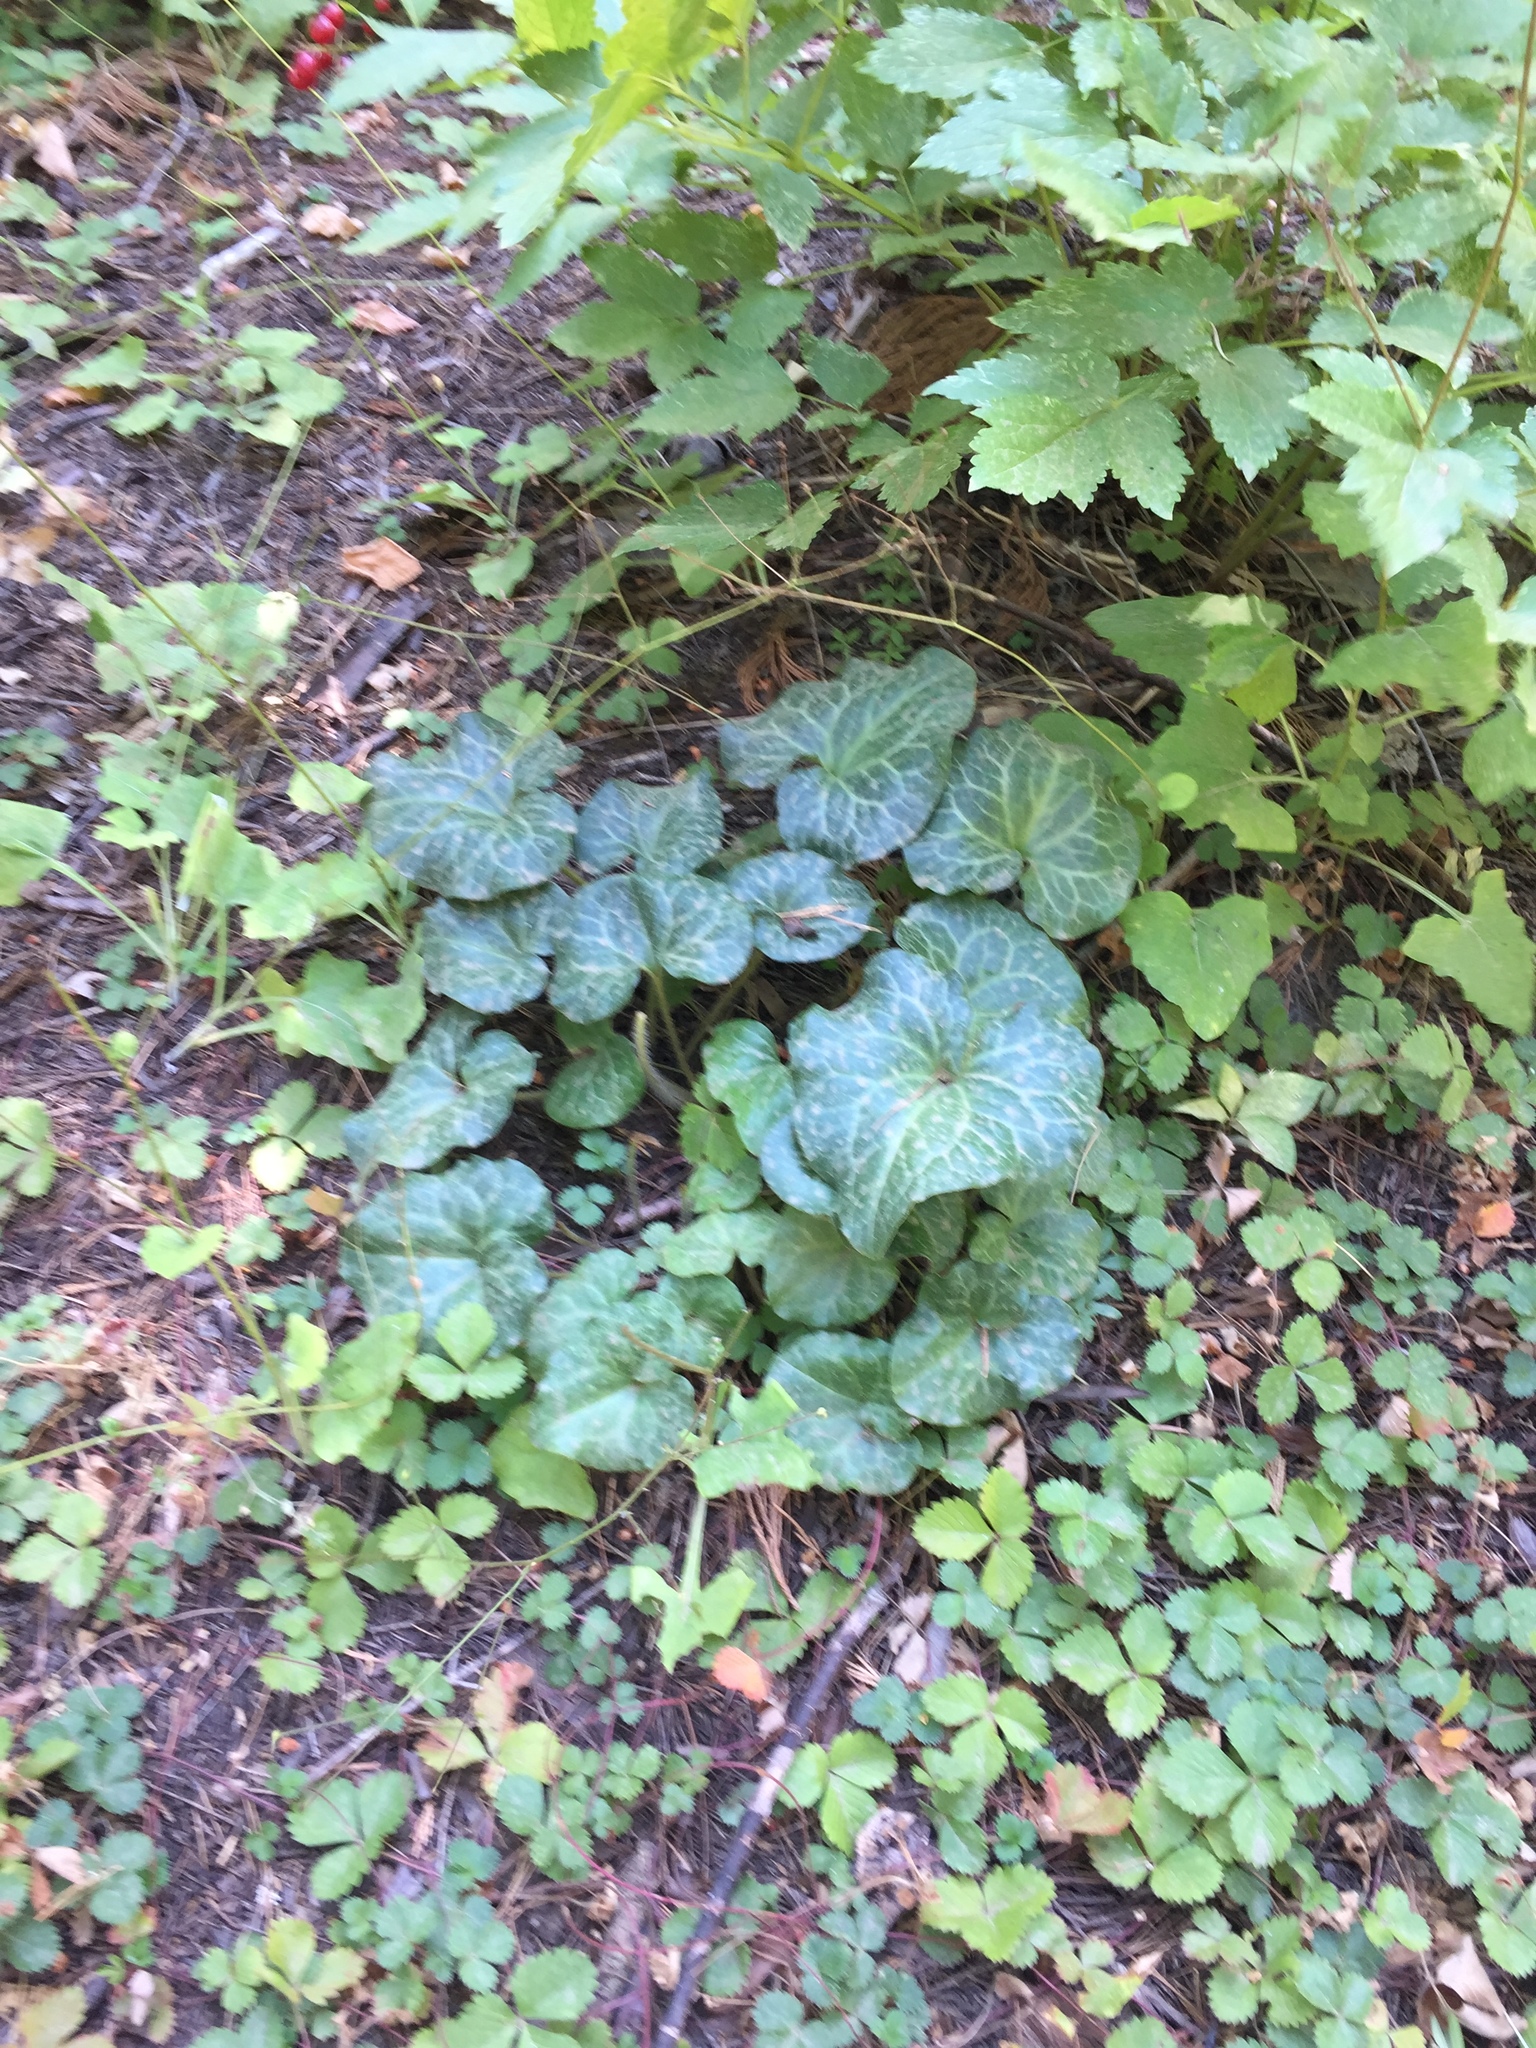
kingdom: Plantae
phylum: Tracheophyta
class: Magnoliopsida
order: Piperales
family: Aristolochiaceae
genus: Asarum
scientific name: Asarum hartwegii
